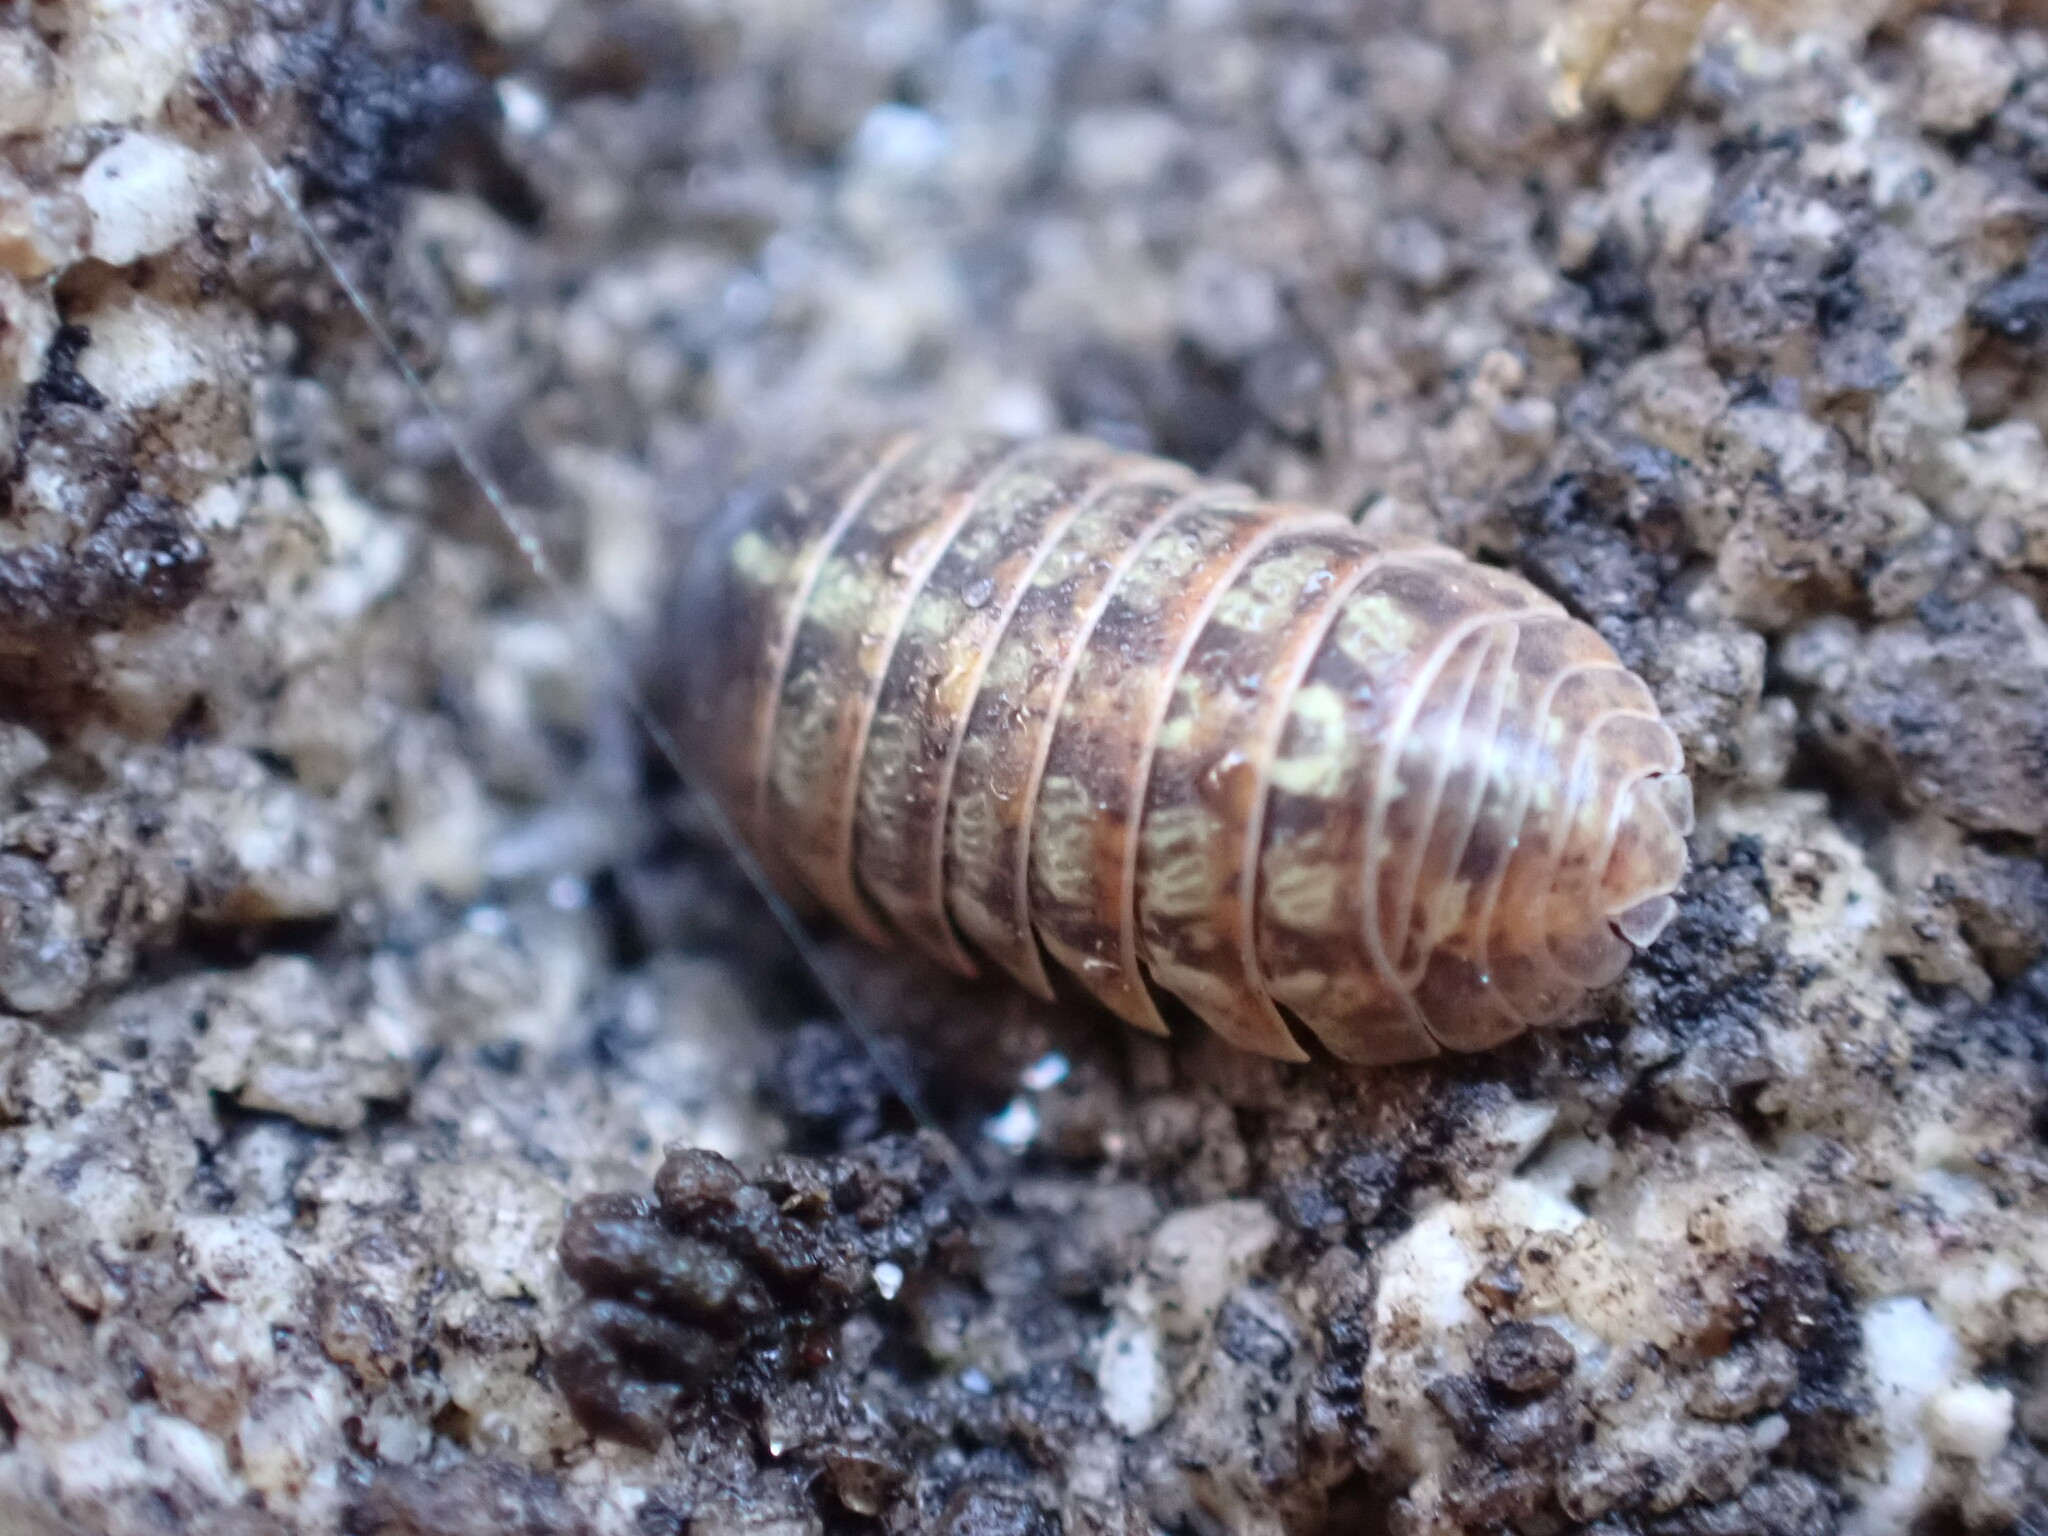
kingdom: Animalia
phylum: Arthropoda
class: Malacostraca
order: Isopoda
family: Armadillidiidae
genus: Armadillidium
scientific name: Armadillidium vulgare
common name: Common pill woodlouse
